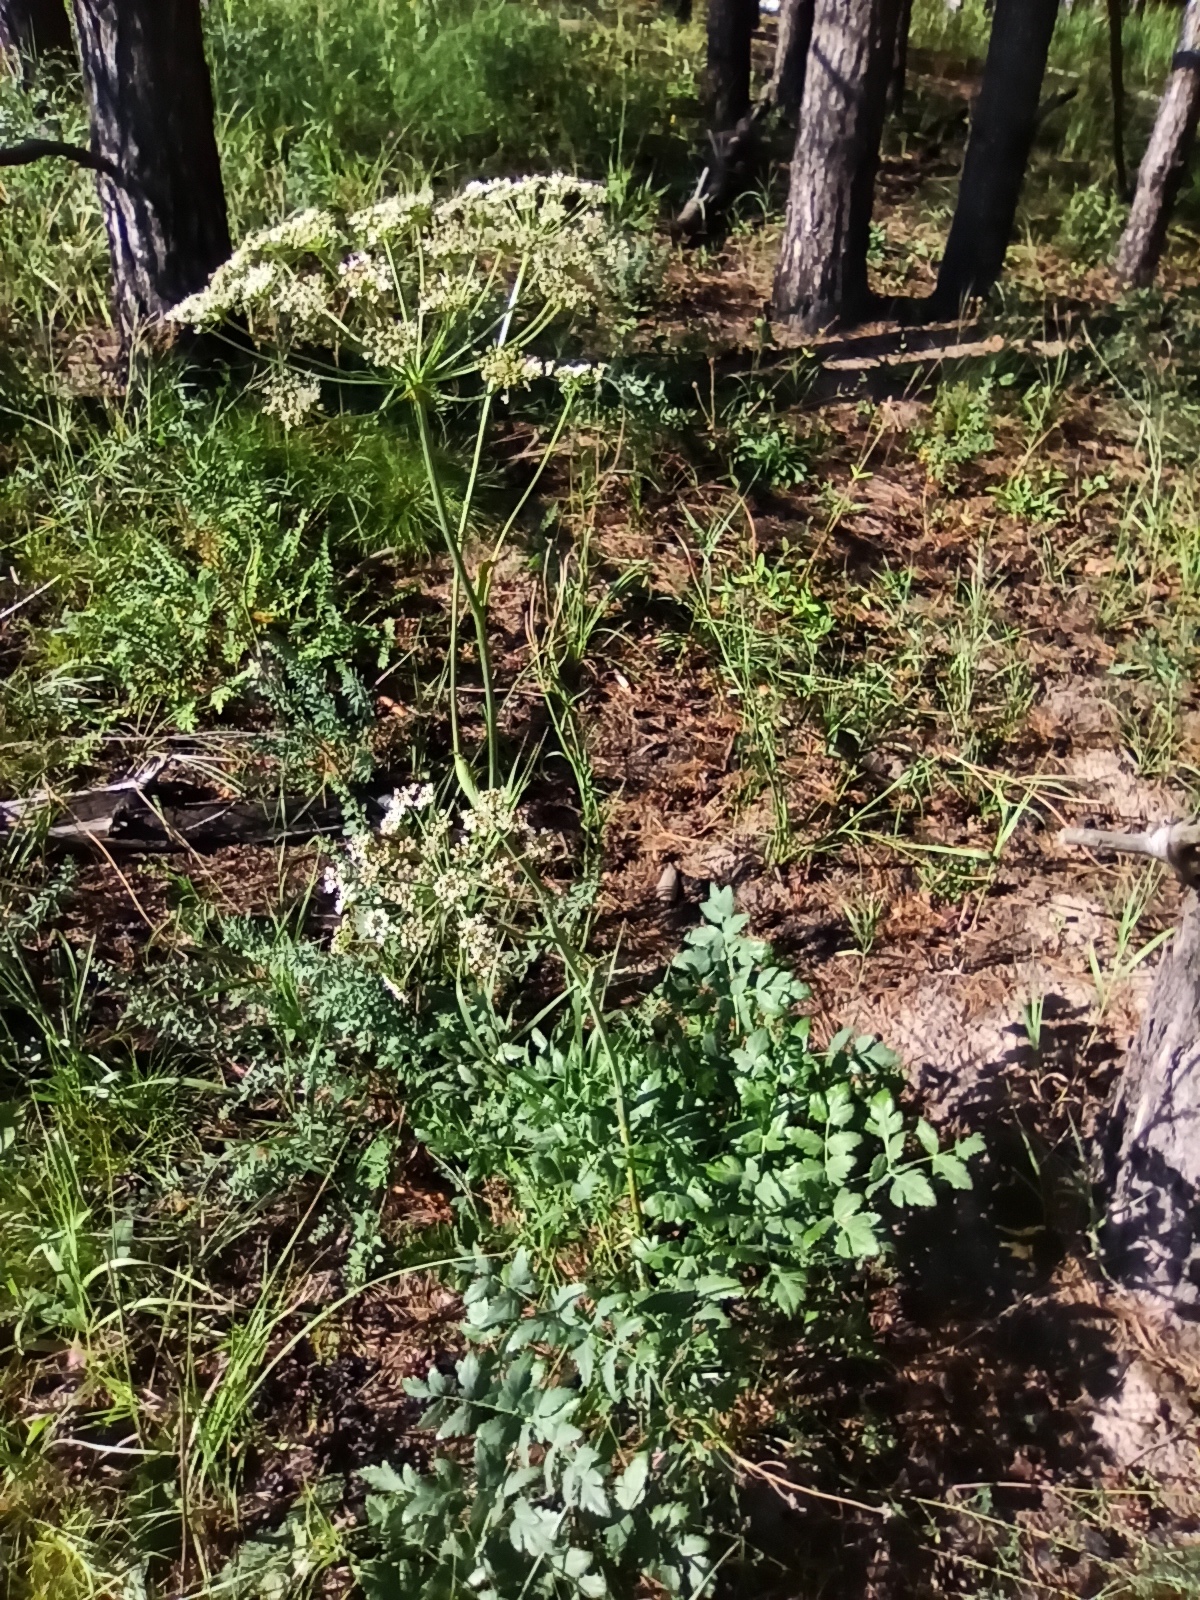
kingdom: Plantae
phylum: Tracheophyta
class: Magnoliopsida
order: Apiales
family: Apiaceae
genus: Cervaria
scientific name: Cervaria rivini
